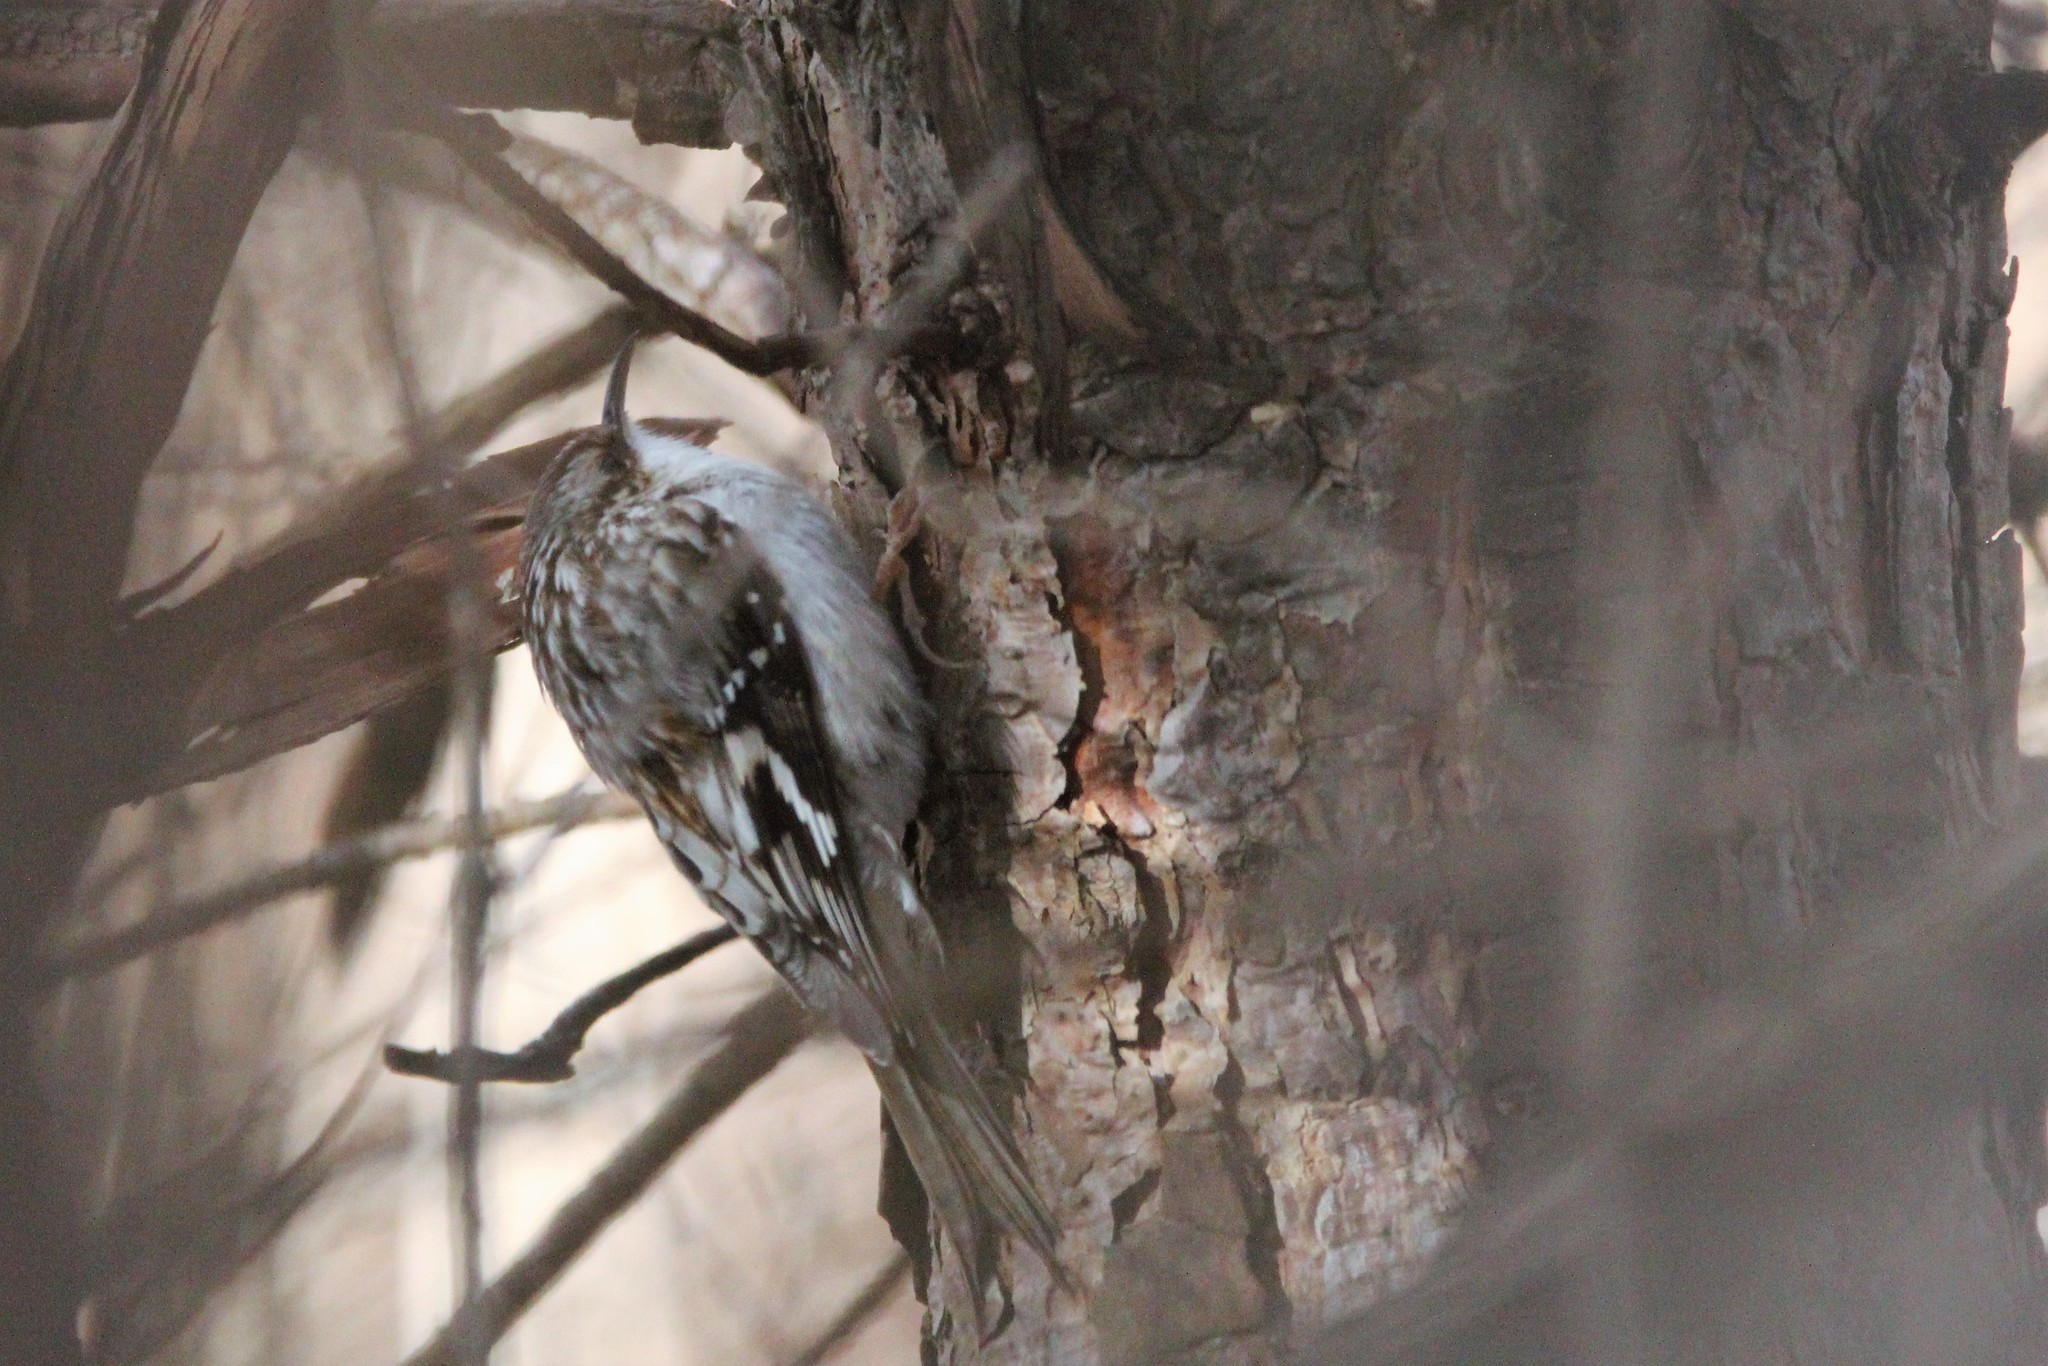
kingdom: Animalia
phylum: Chordata
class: Aves
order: Passeriformes
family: Certhiidae
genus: Certhia
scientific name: Certhia americana
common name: Brown creeper
